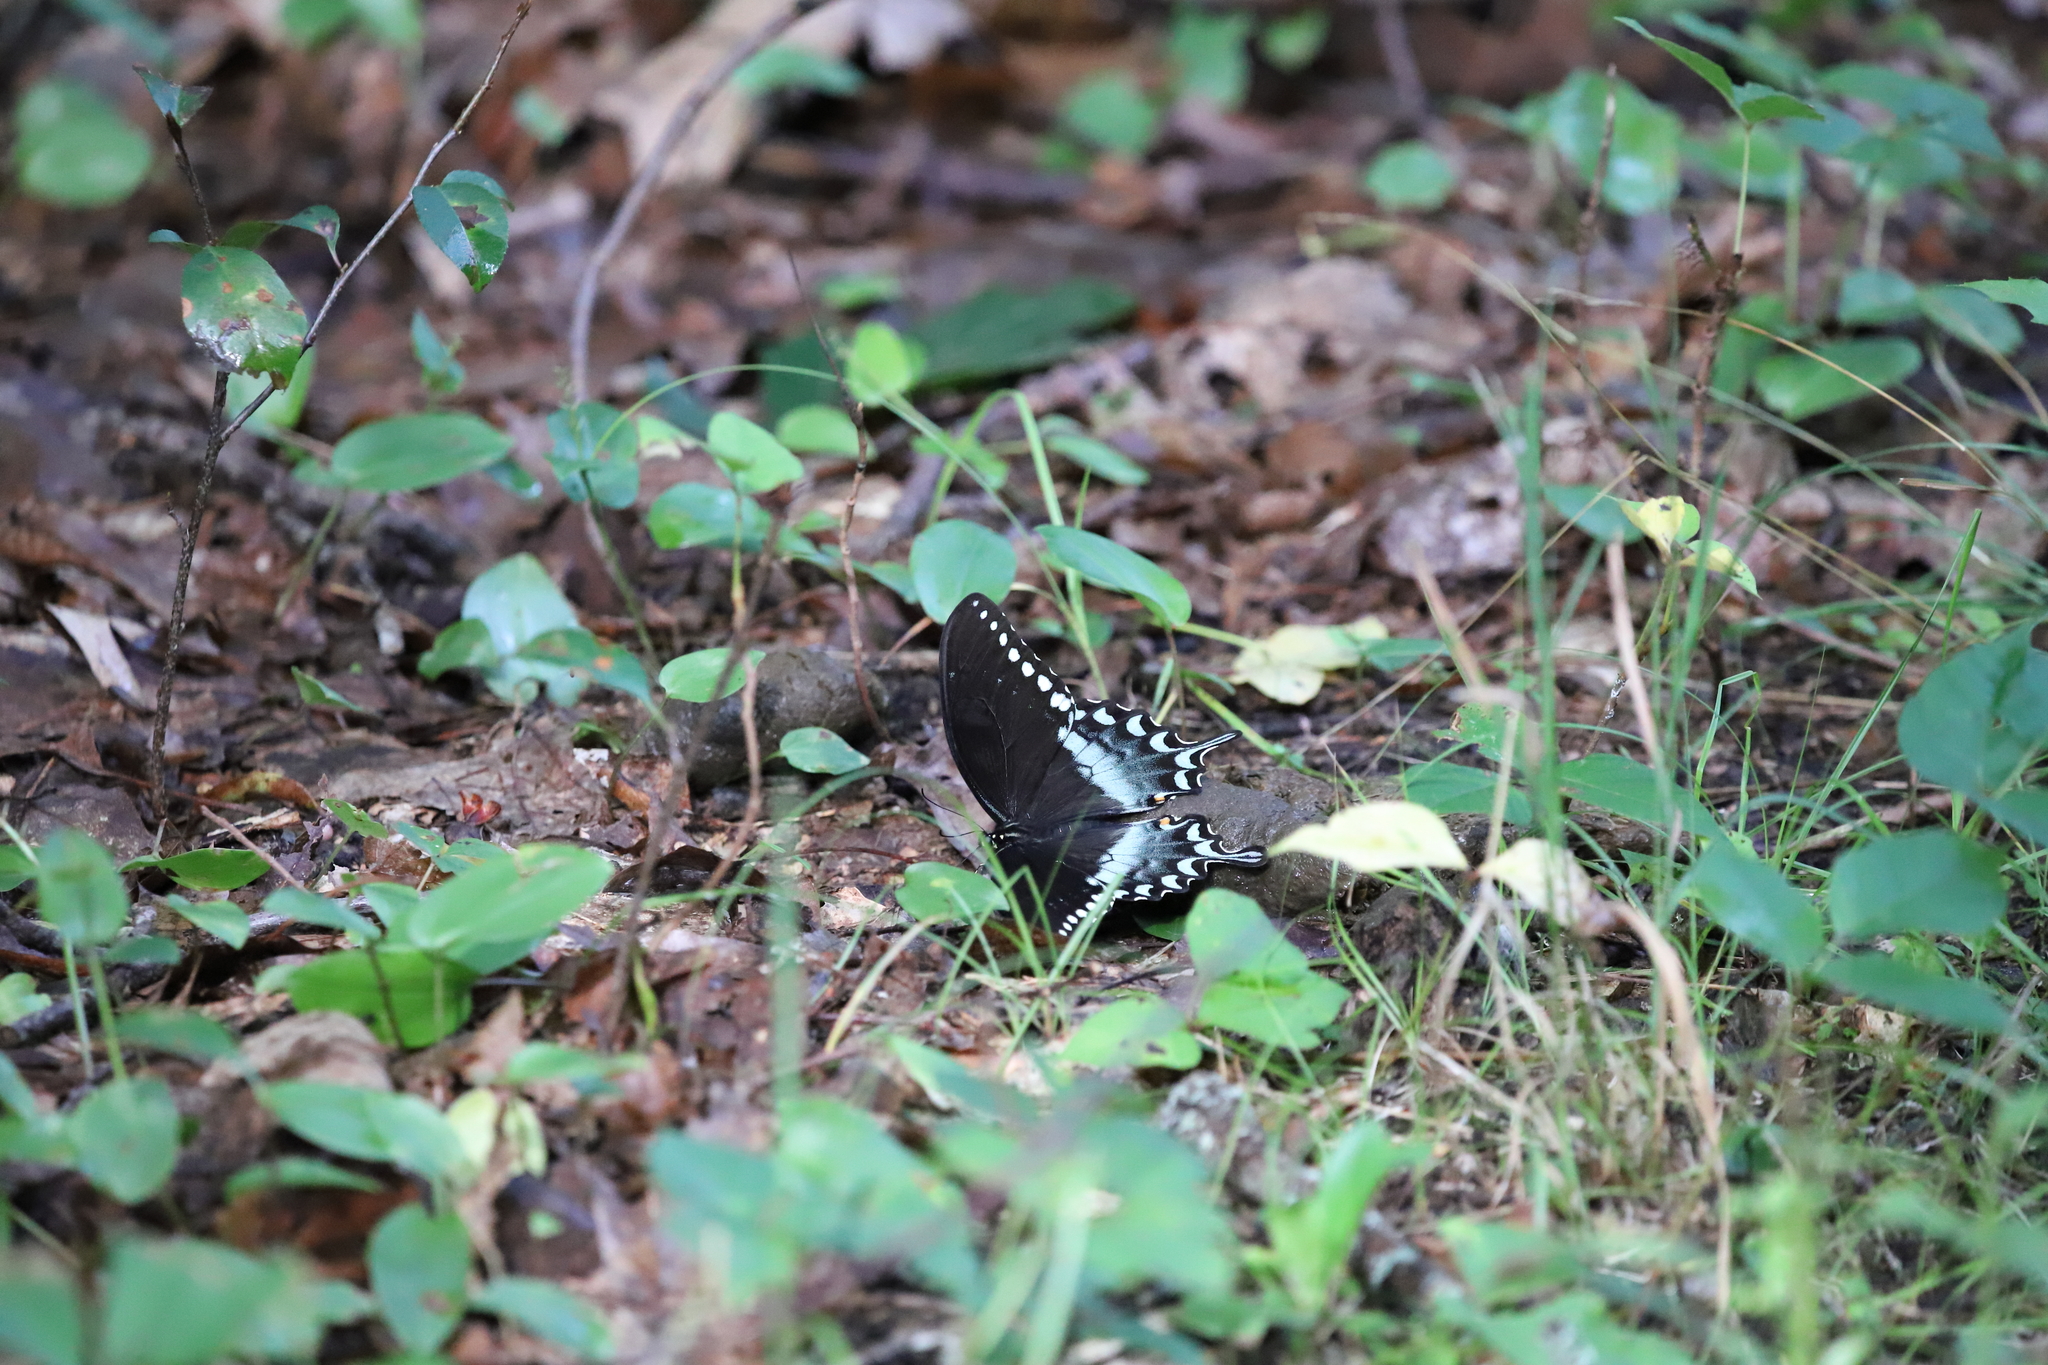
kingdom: Animalia
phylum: Arthropoda
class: Insecta
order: Lepidoptera
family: Papilionidae
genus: Papilio
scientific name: Papilio troilus
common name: Spicebush swallowtail
